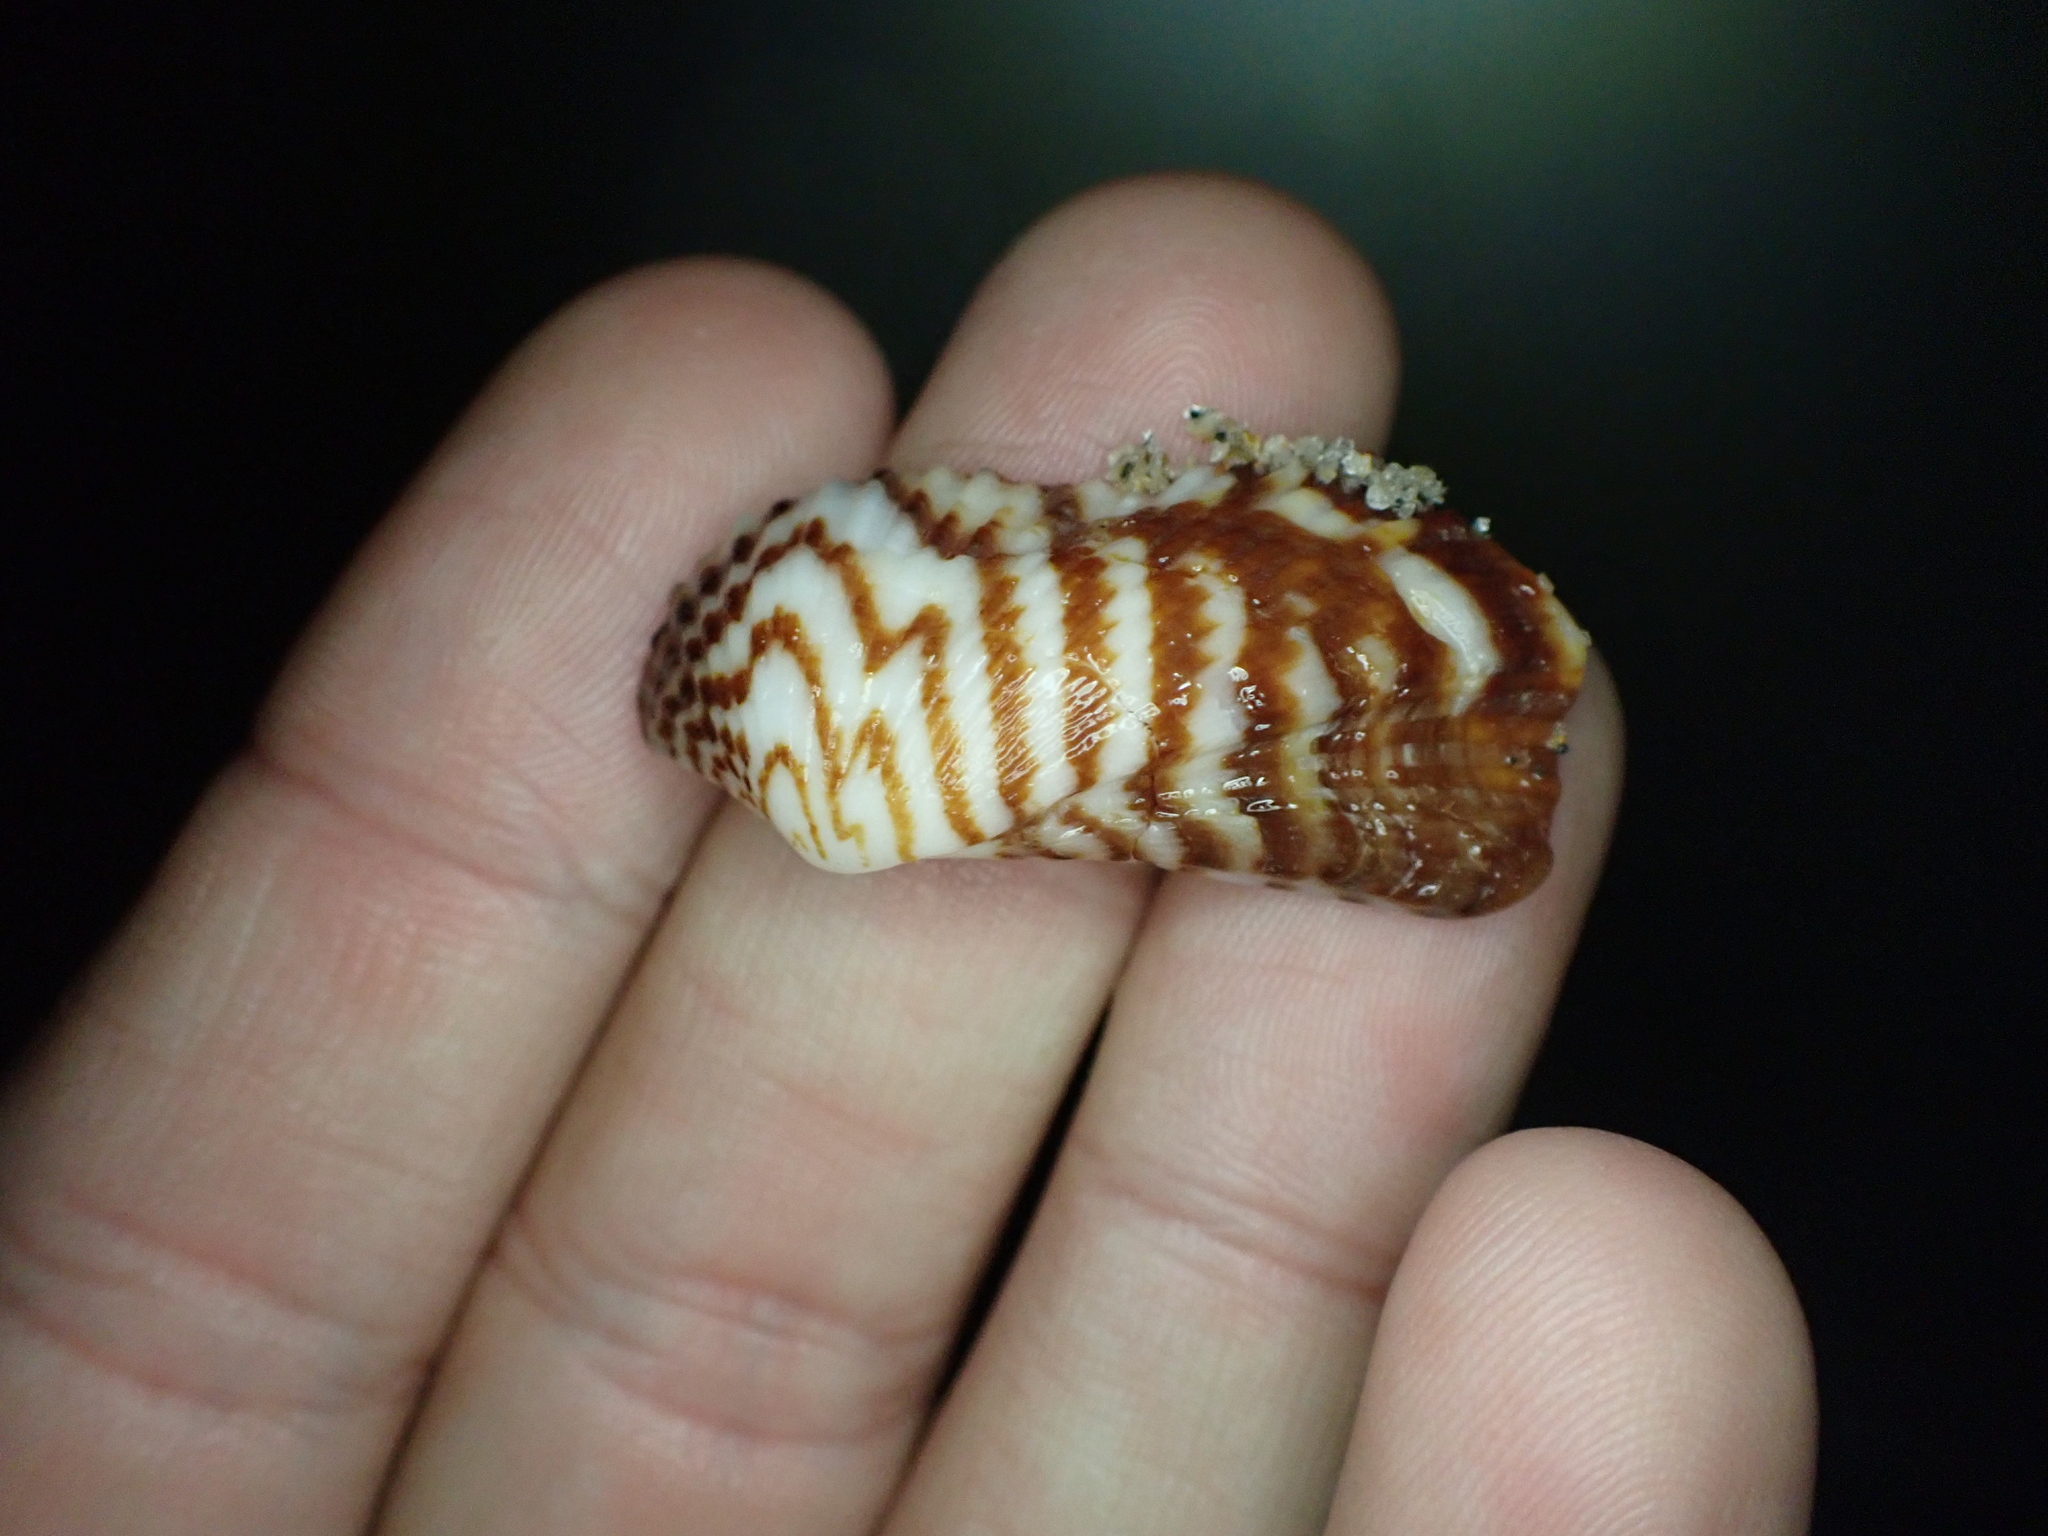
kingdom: Animalia
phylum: Mollusca
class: Bivalvia
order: Arcida
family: Arcidae
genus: Arca
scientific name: Arca zebra
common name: Atlantic turkey wing
